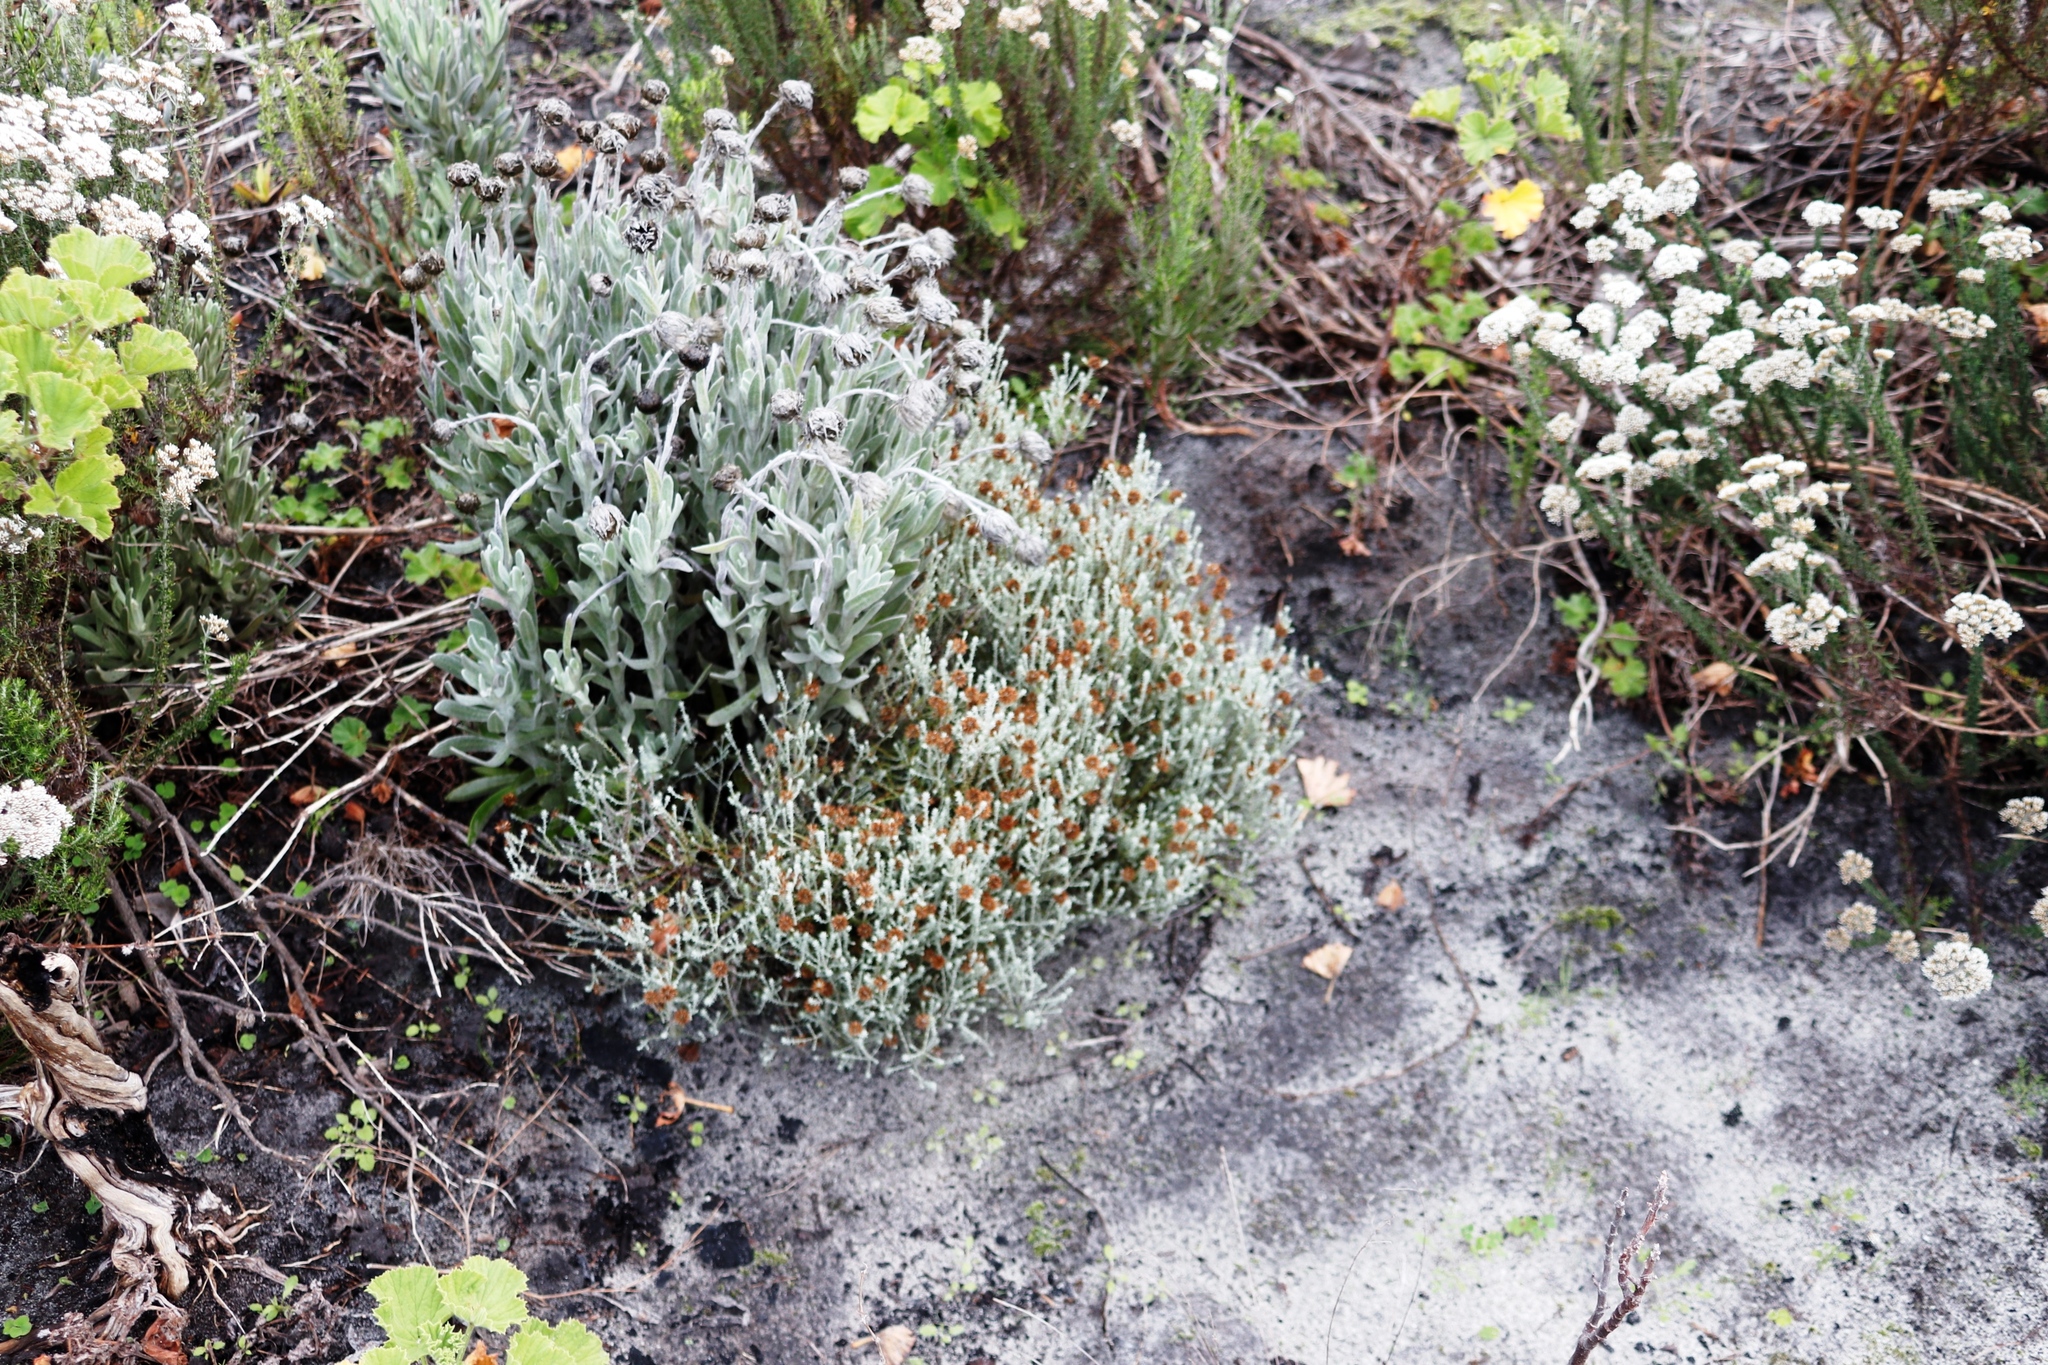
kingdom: Plantae
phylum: Tracheophyta
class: Magnoliopsida
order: Asterales
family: Asteraceae
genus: Seriphium
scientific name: Seriphium spirale
